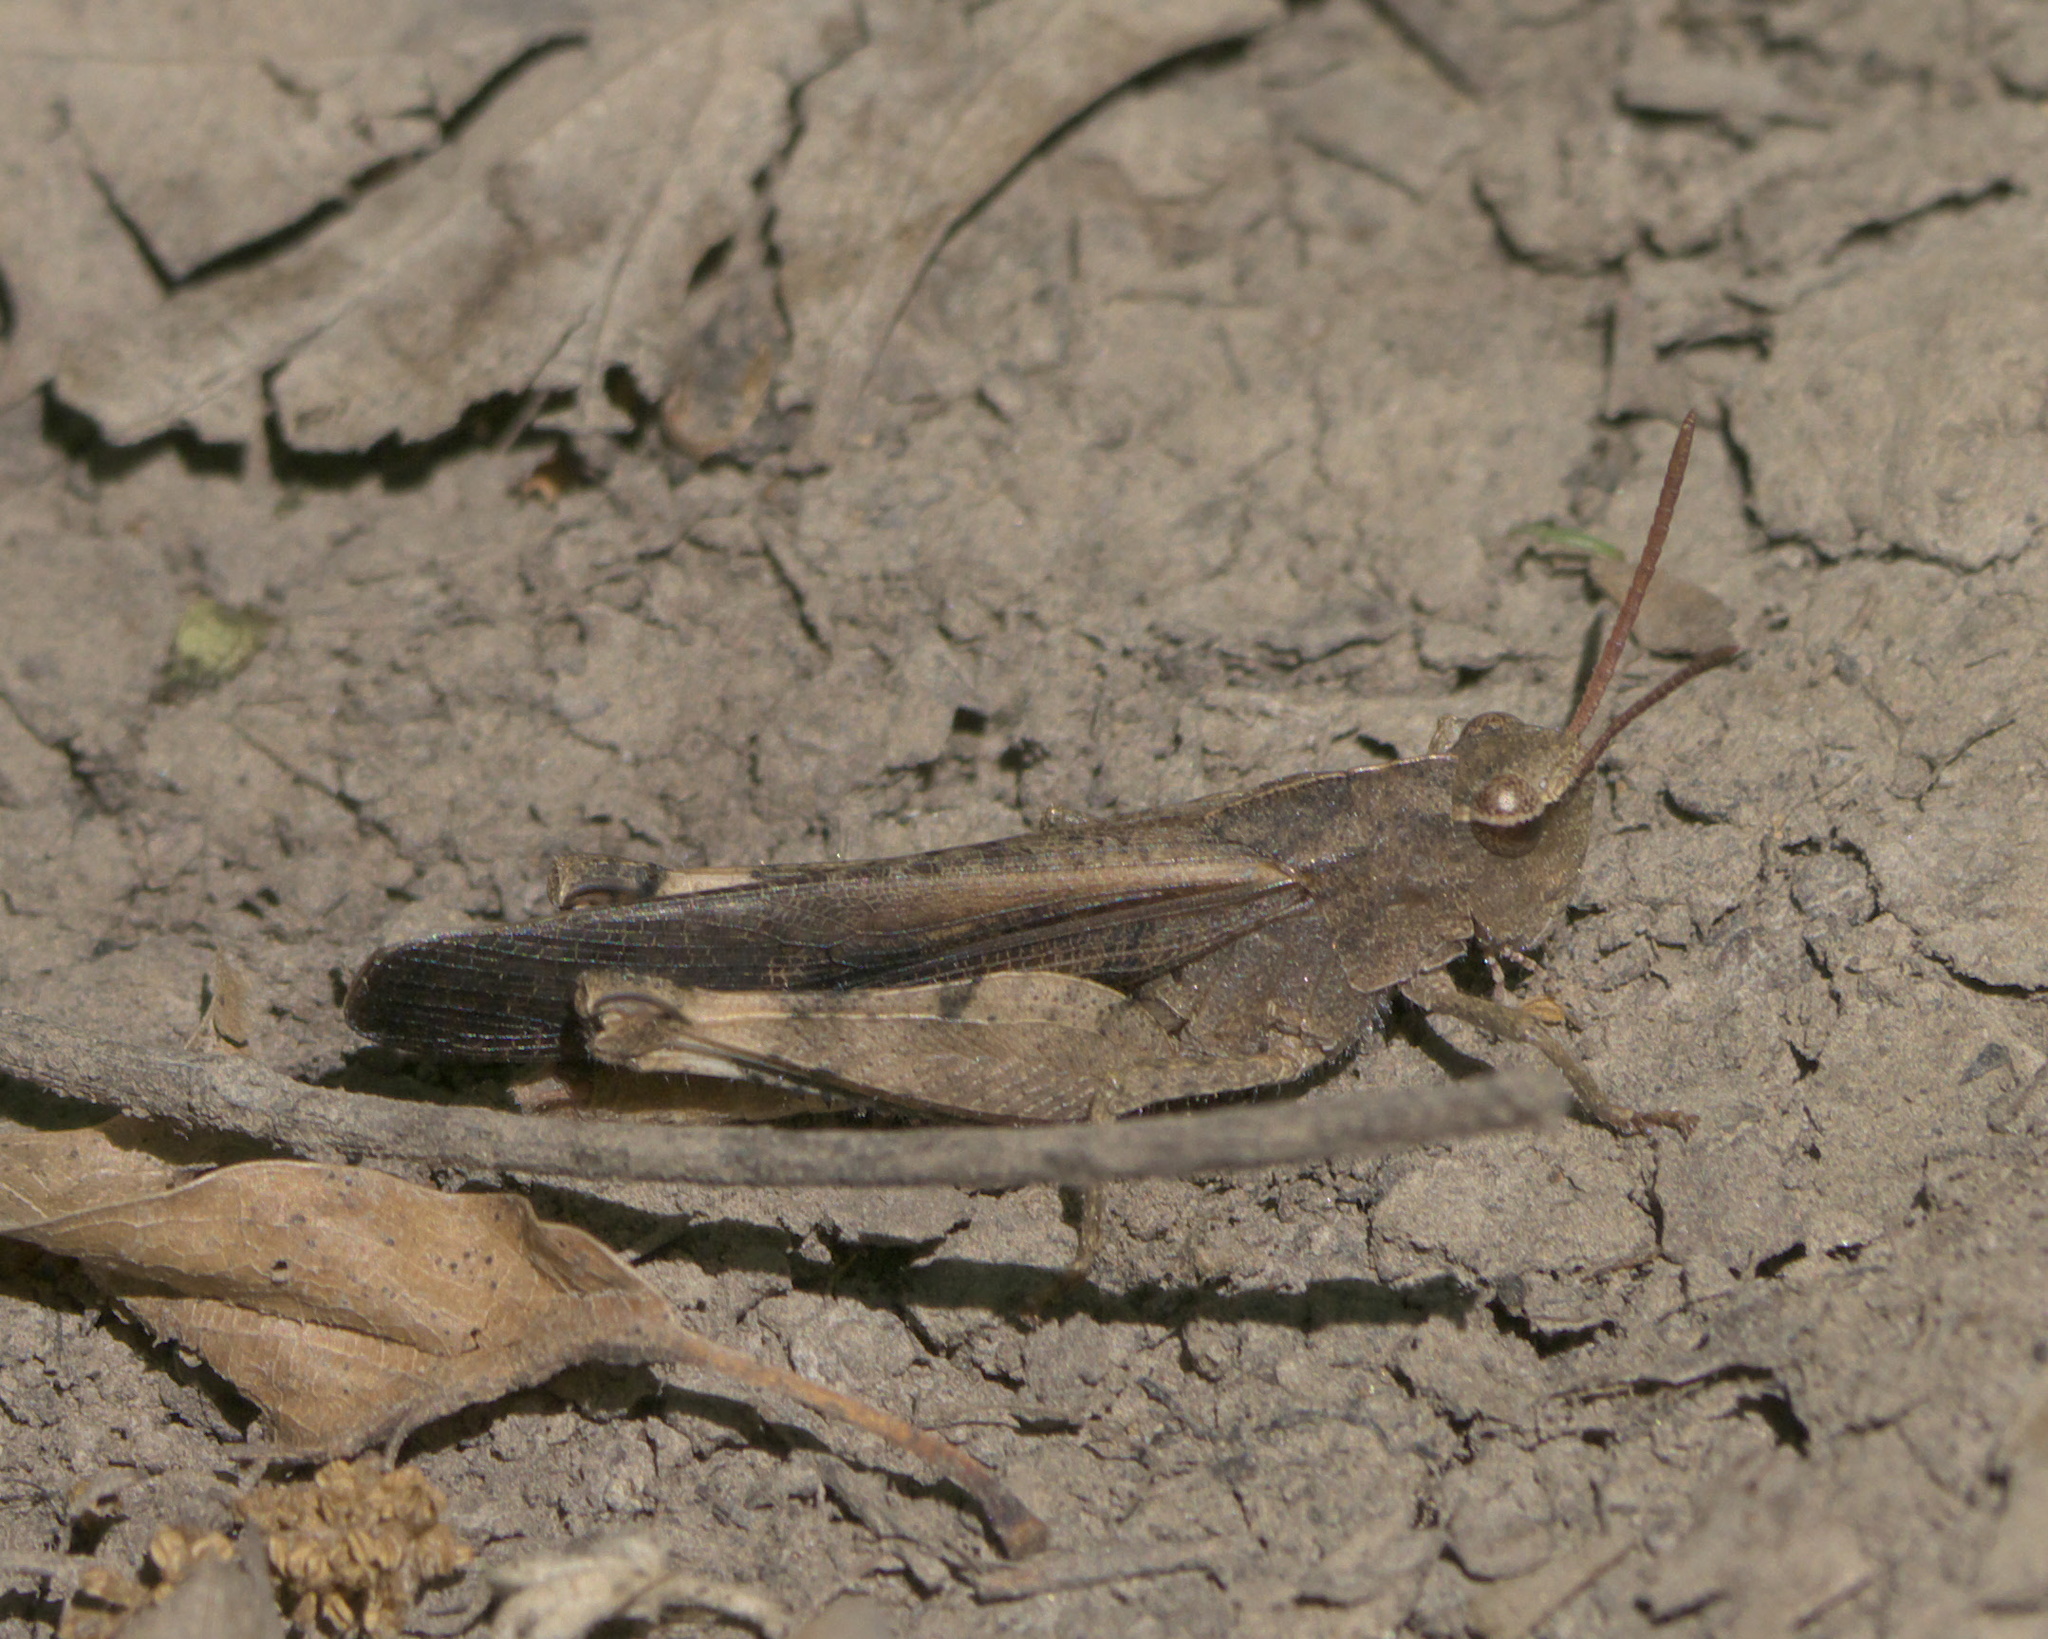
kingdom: Animalia
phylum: Arthropoda
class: Insecta
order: Orthoptera
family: Acrididae
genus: Chortophaga
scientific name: Chortophaga viridifasciata
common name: Green-striped grasshopper
